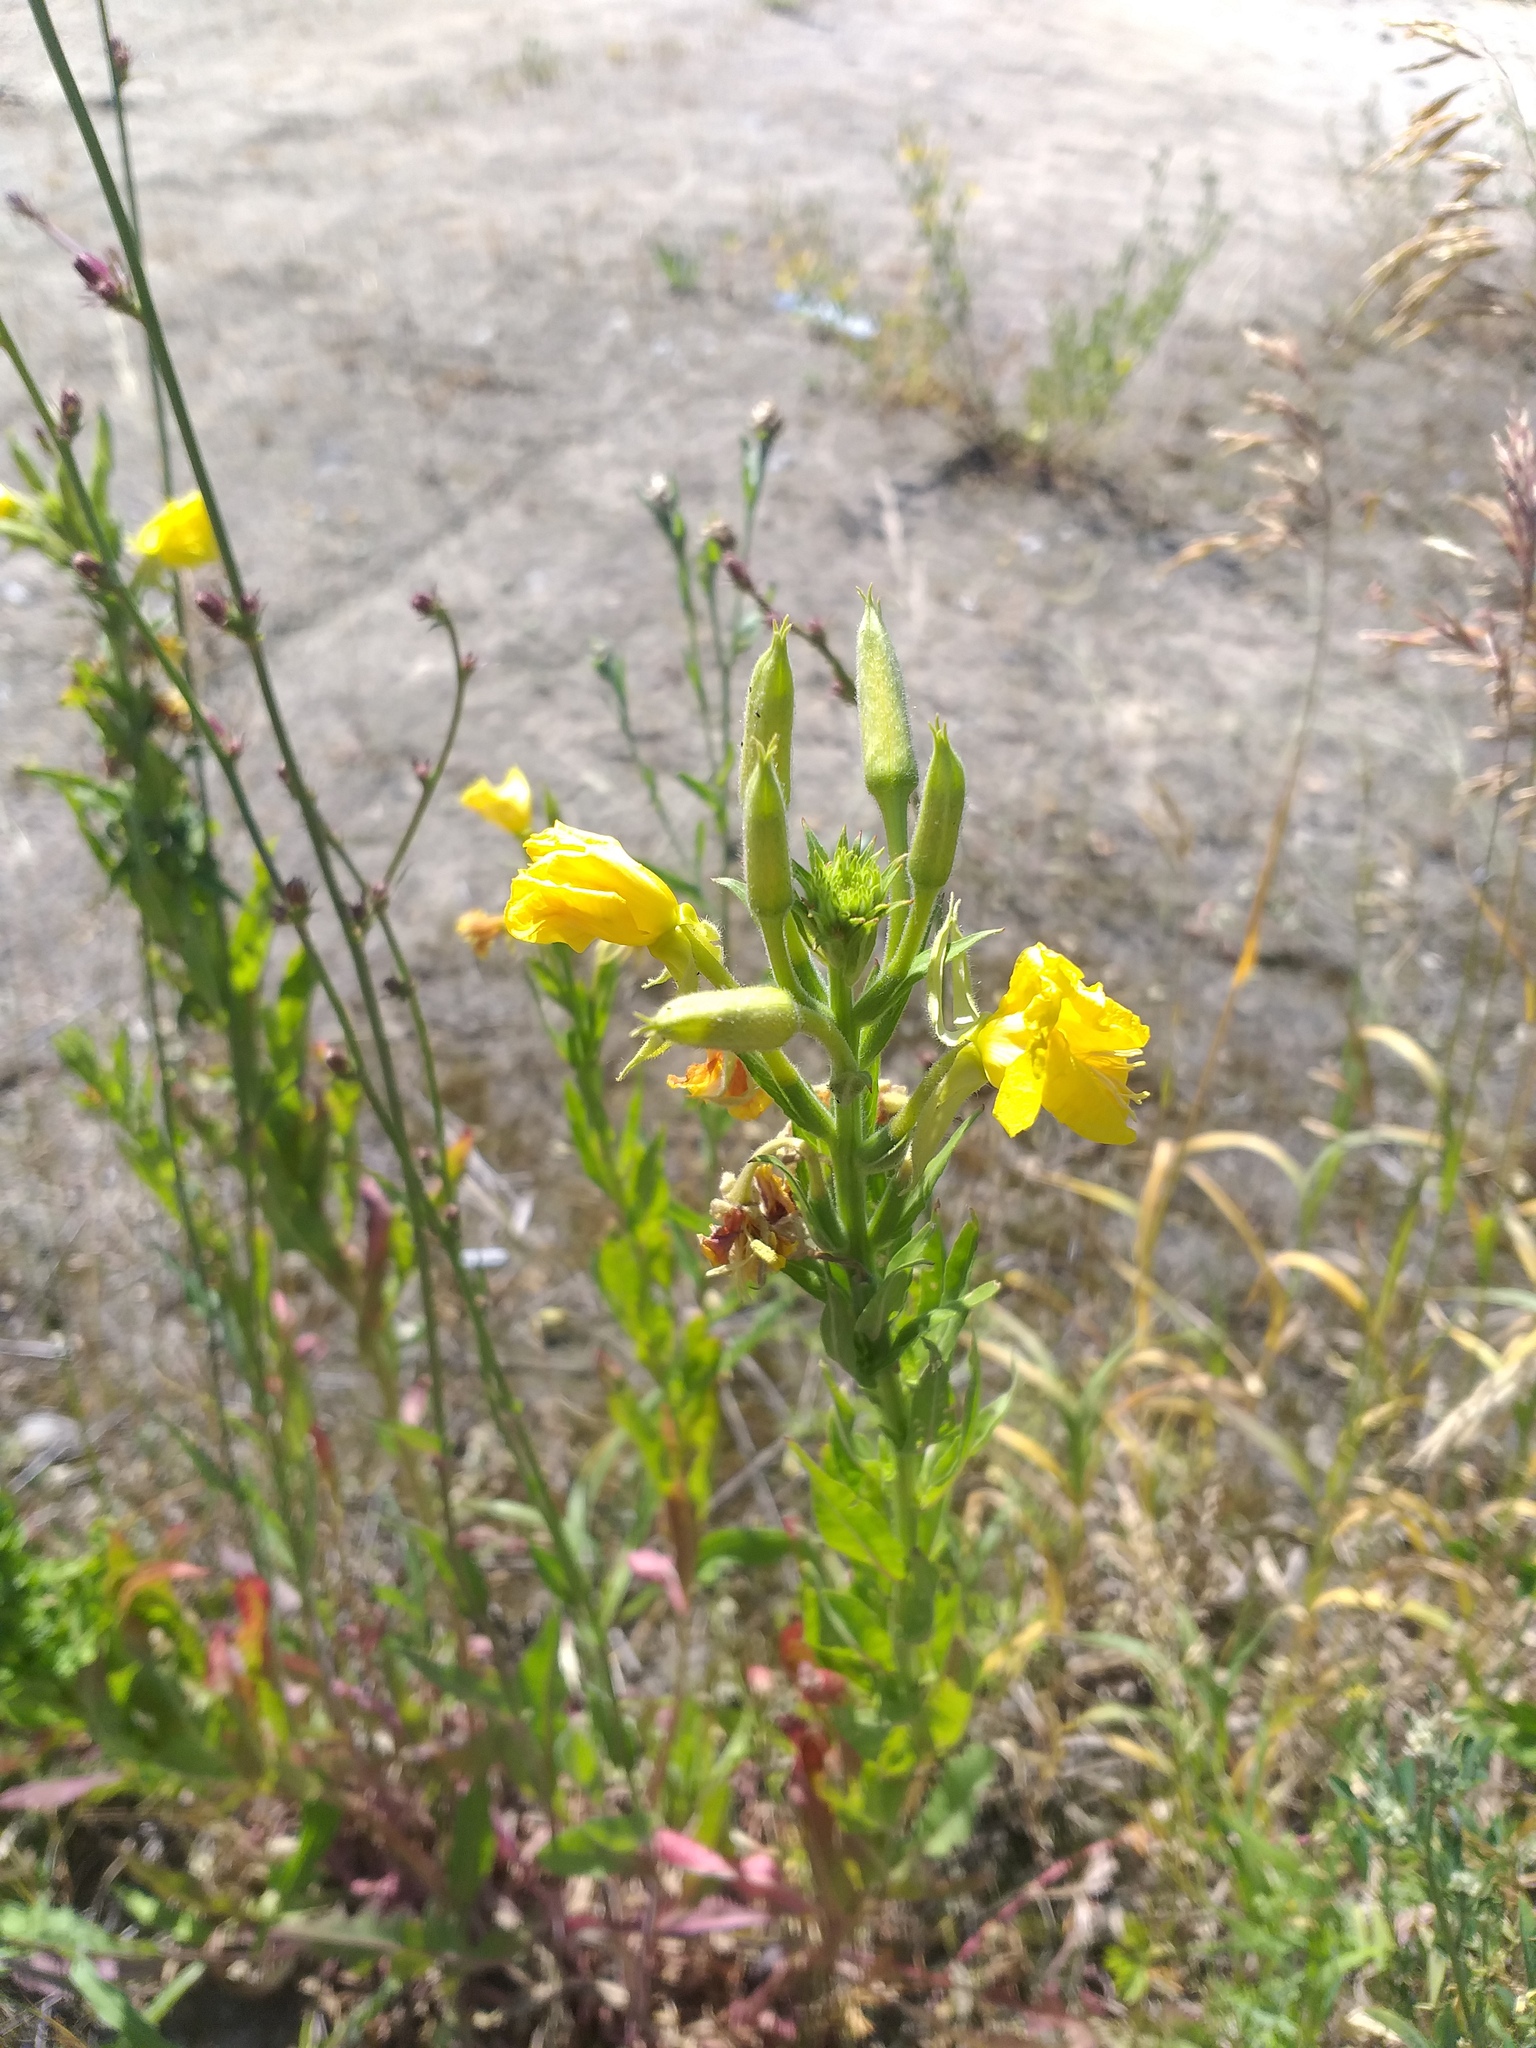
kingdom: Plantae
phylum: Tracheophyta
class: Magnoliopsida
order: Myrtales
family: Onagraceae
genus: Oenothera
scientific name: Oenothera biennis
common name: Common evening-primrose
